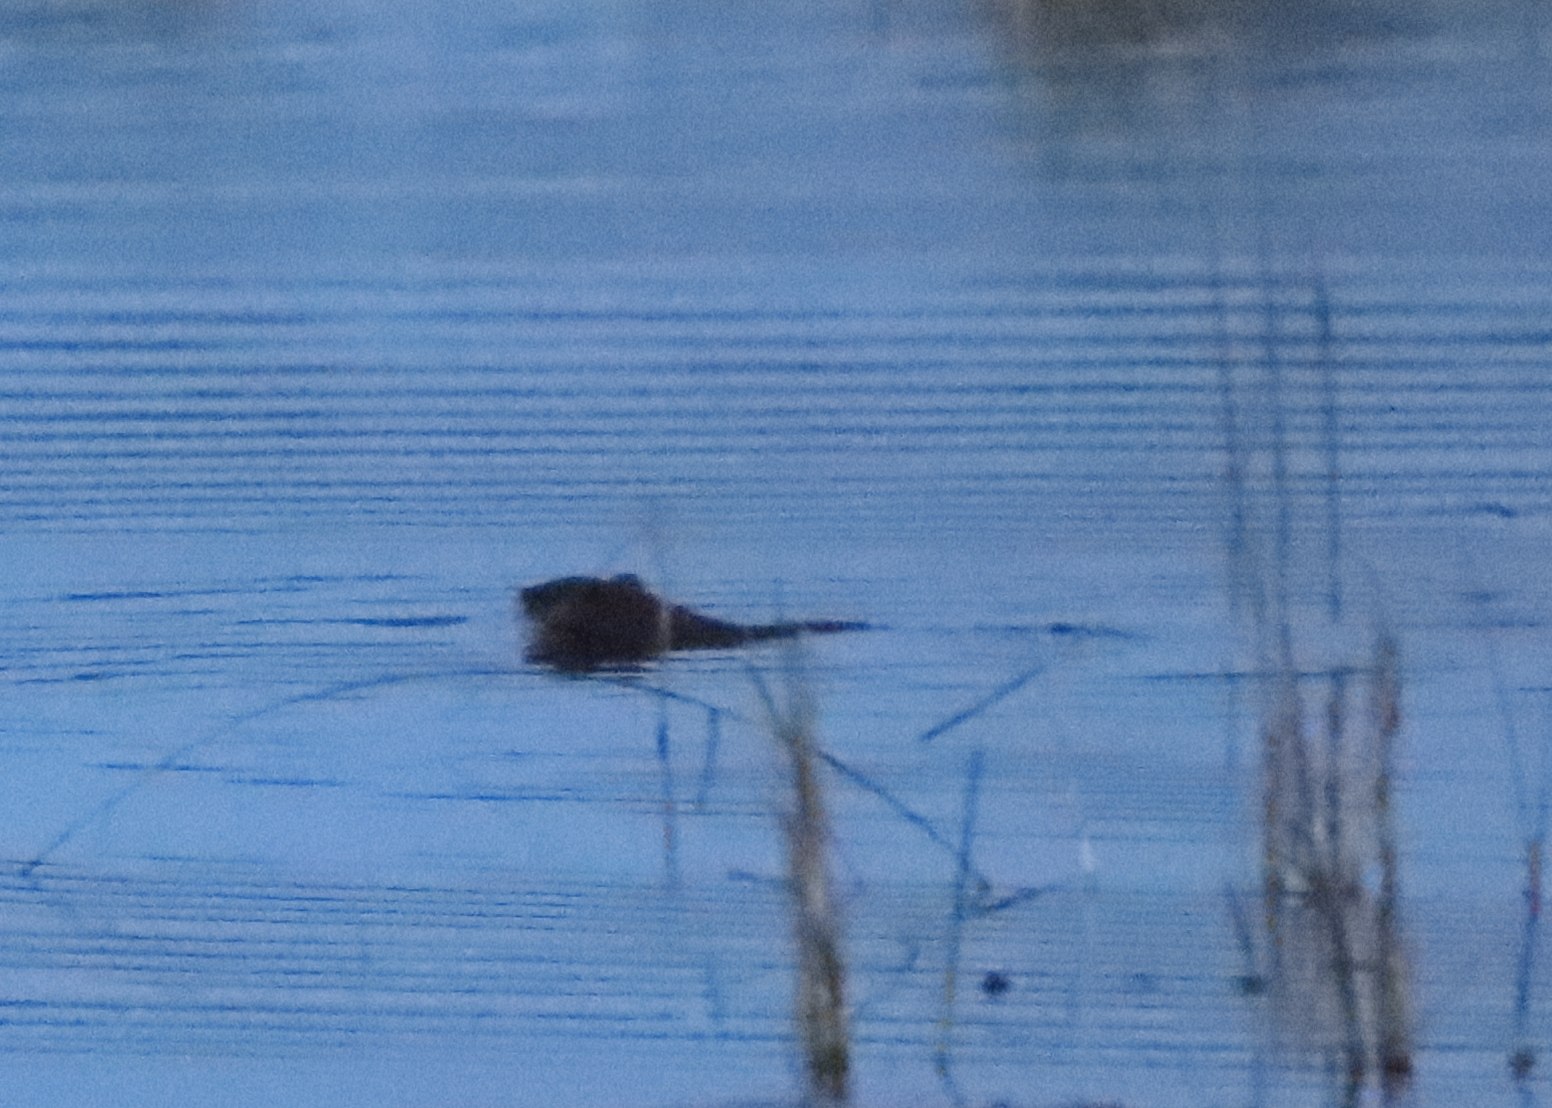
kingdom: Animalia
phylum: Chordata
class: Mammalia
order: Rodentia
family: Cricetidae
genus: Ondatra
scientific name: Ondatra zibethicus
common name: Muskrat
